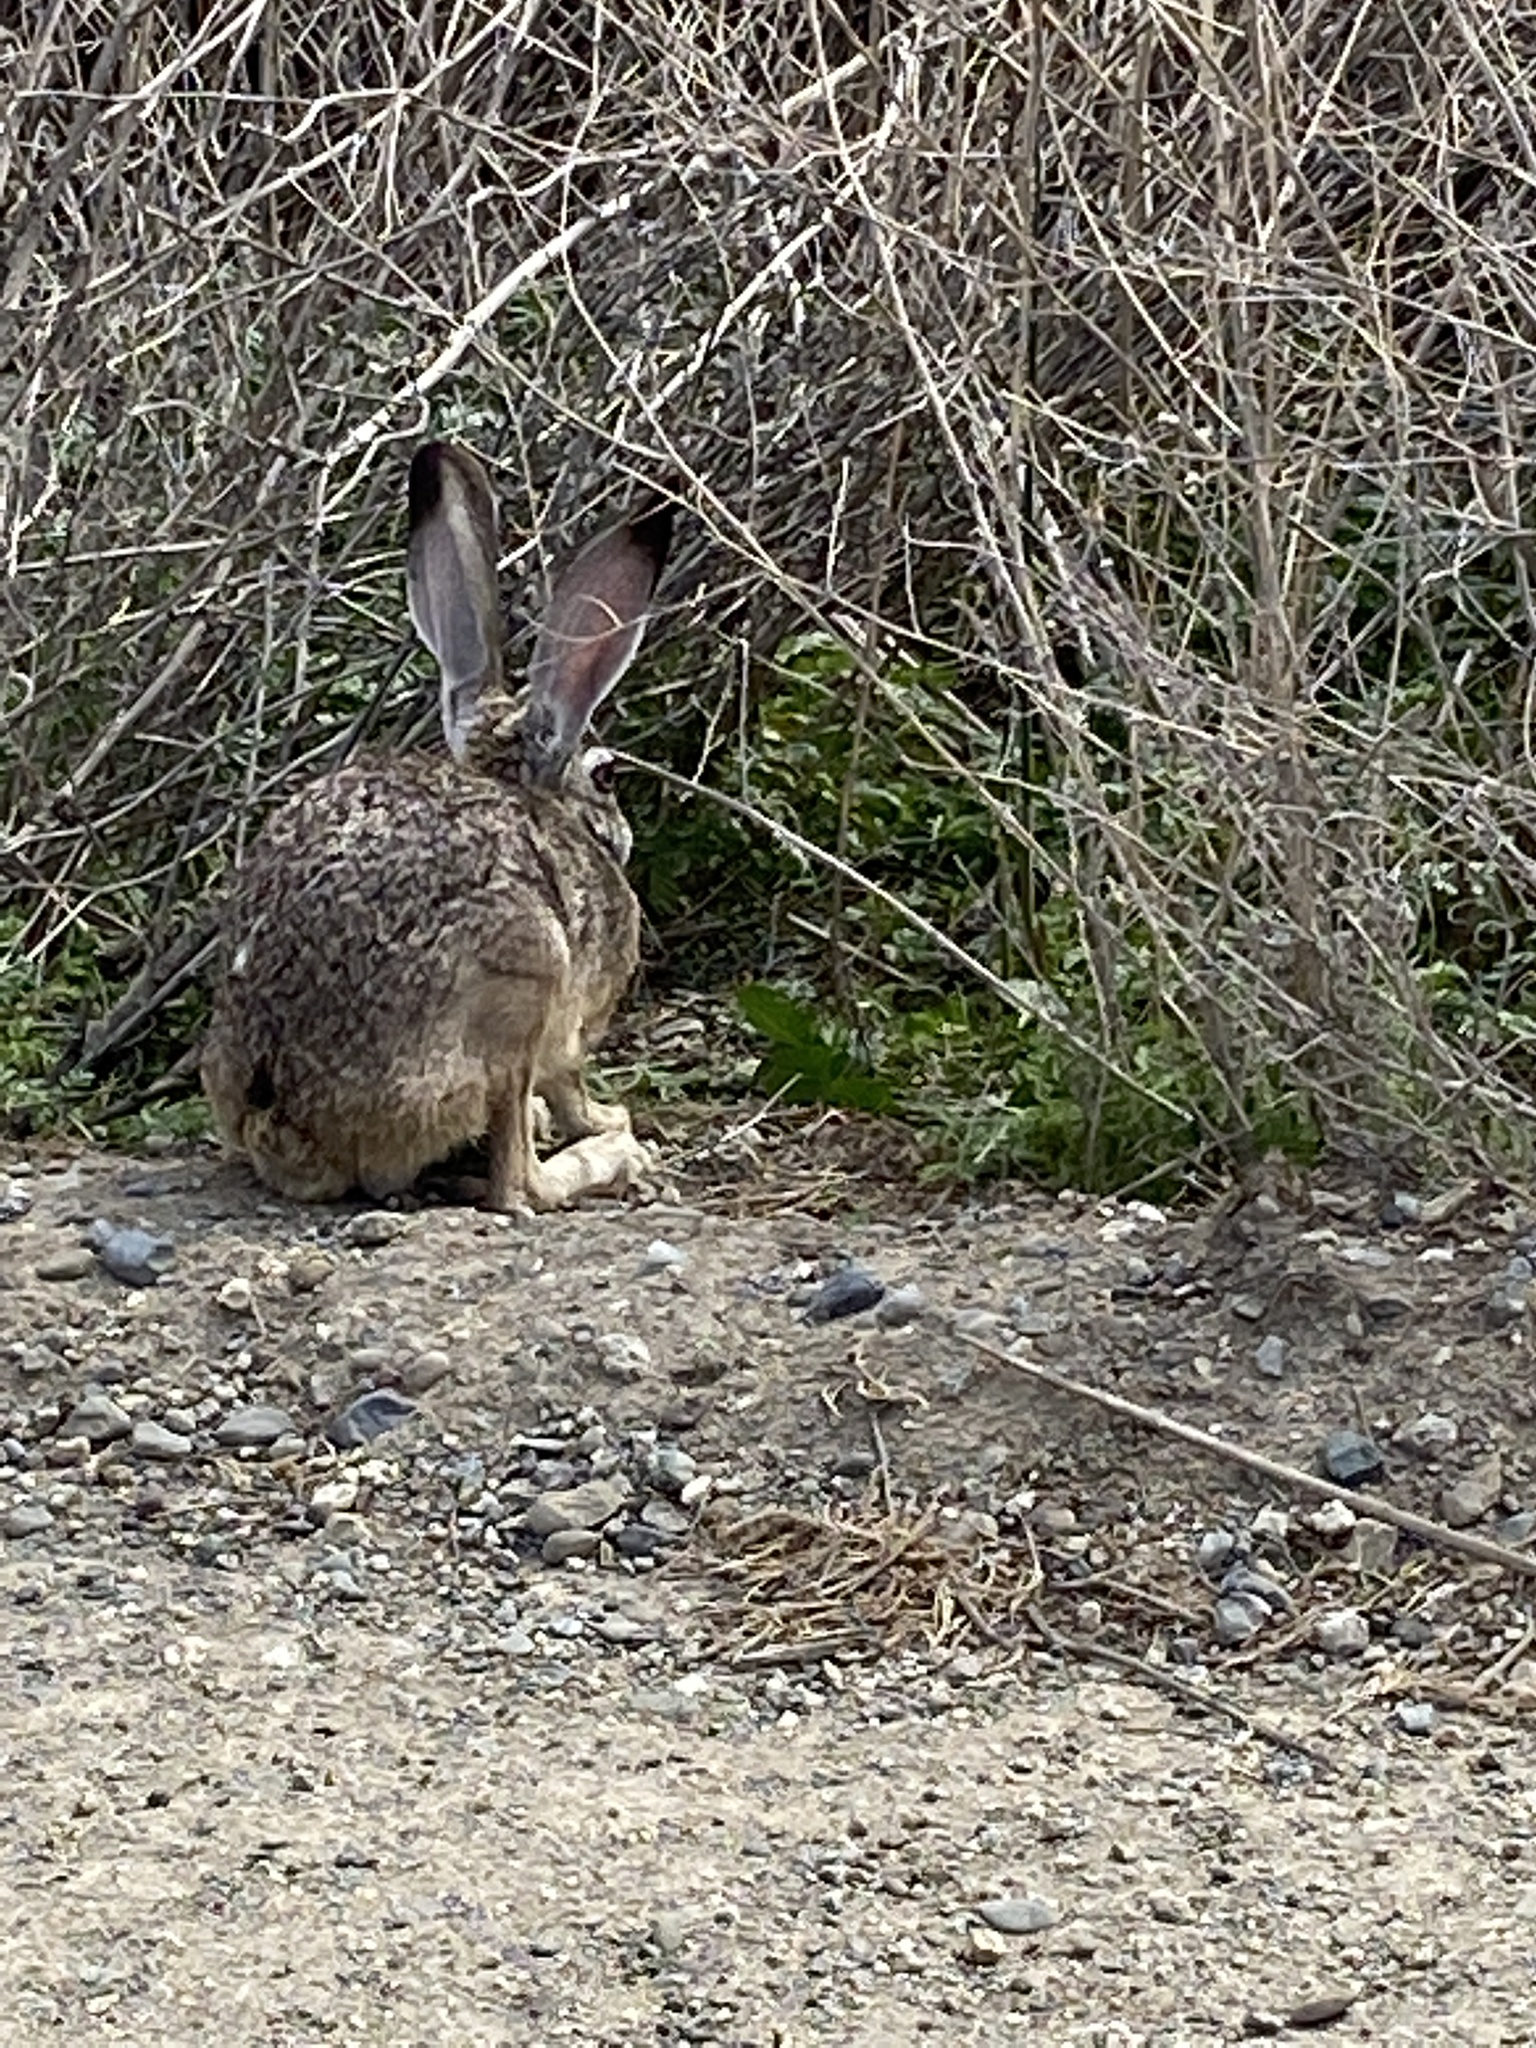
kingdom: Animalia
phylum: Chordata
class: Mammalia
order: Lagomorpha
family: Leporidae
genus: Lepus
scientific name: Lepus californicus
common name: Black-tailed jackrabbit
